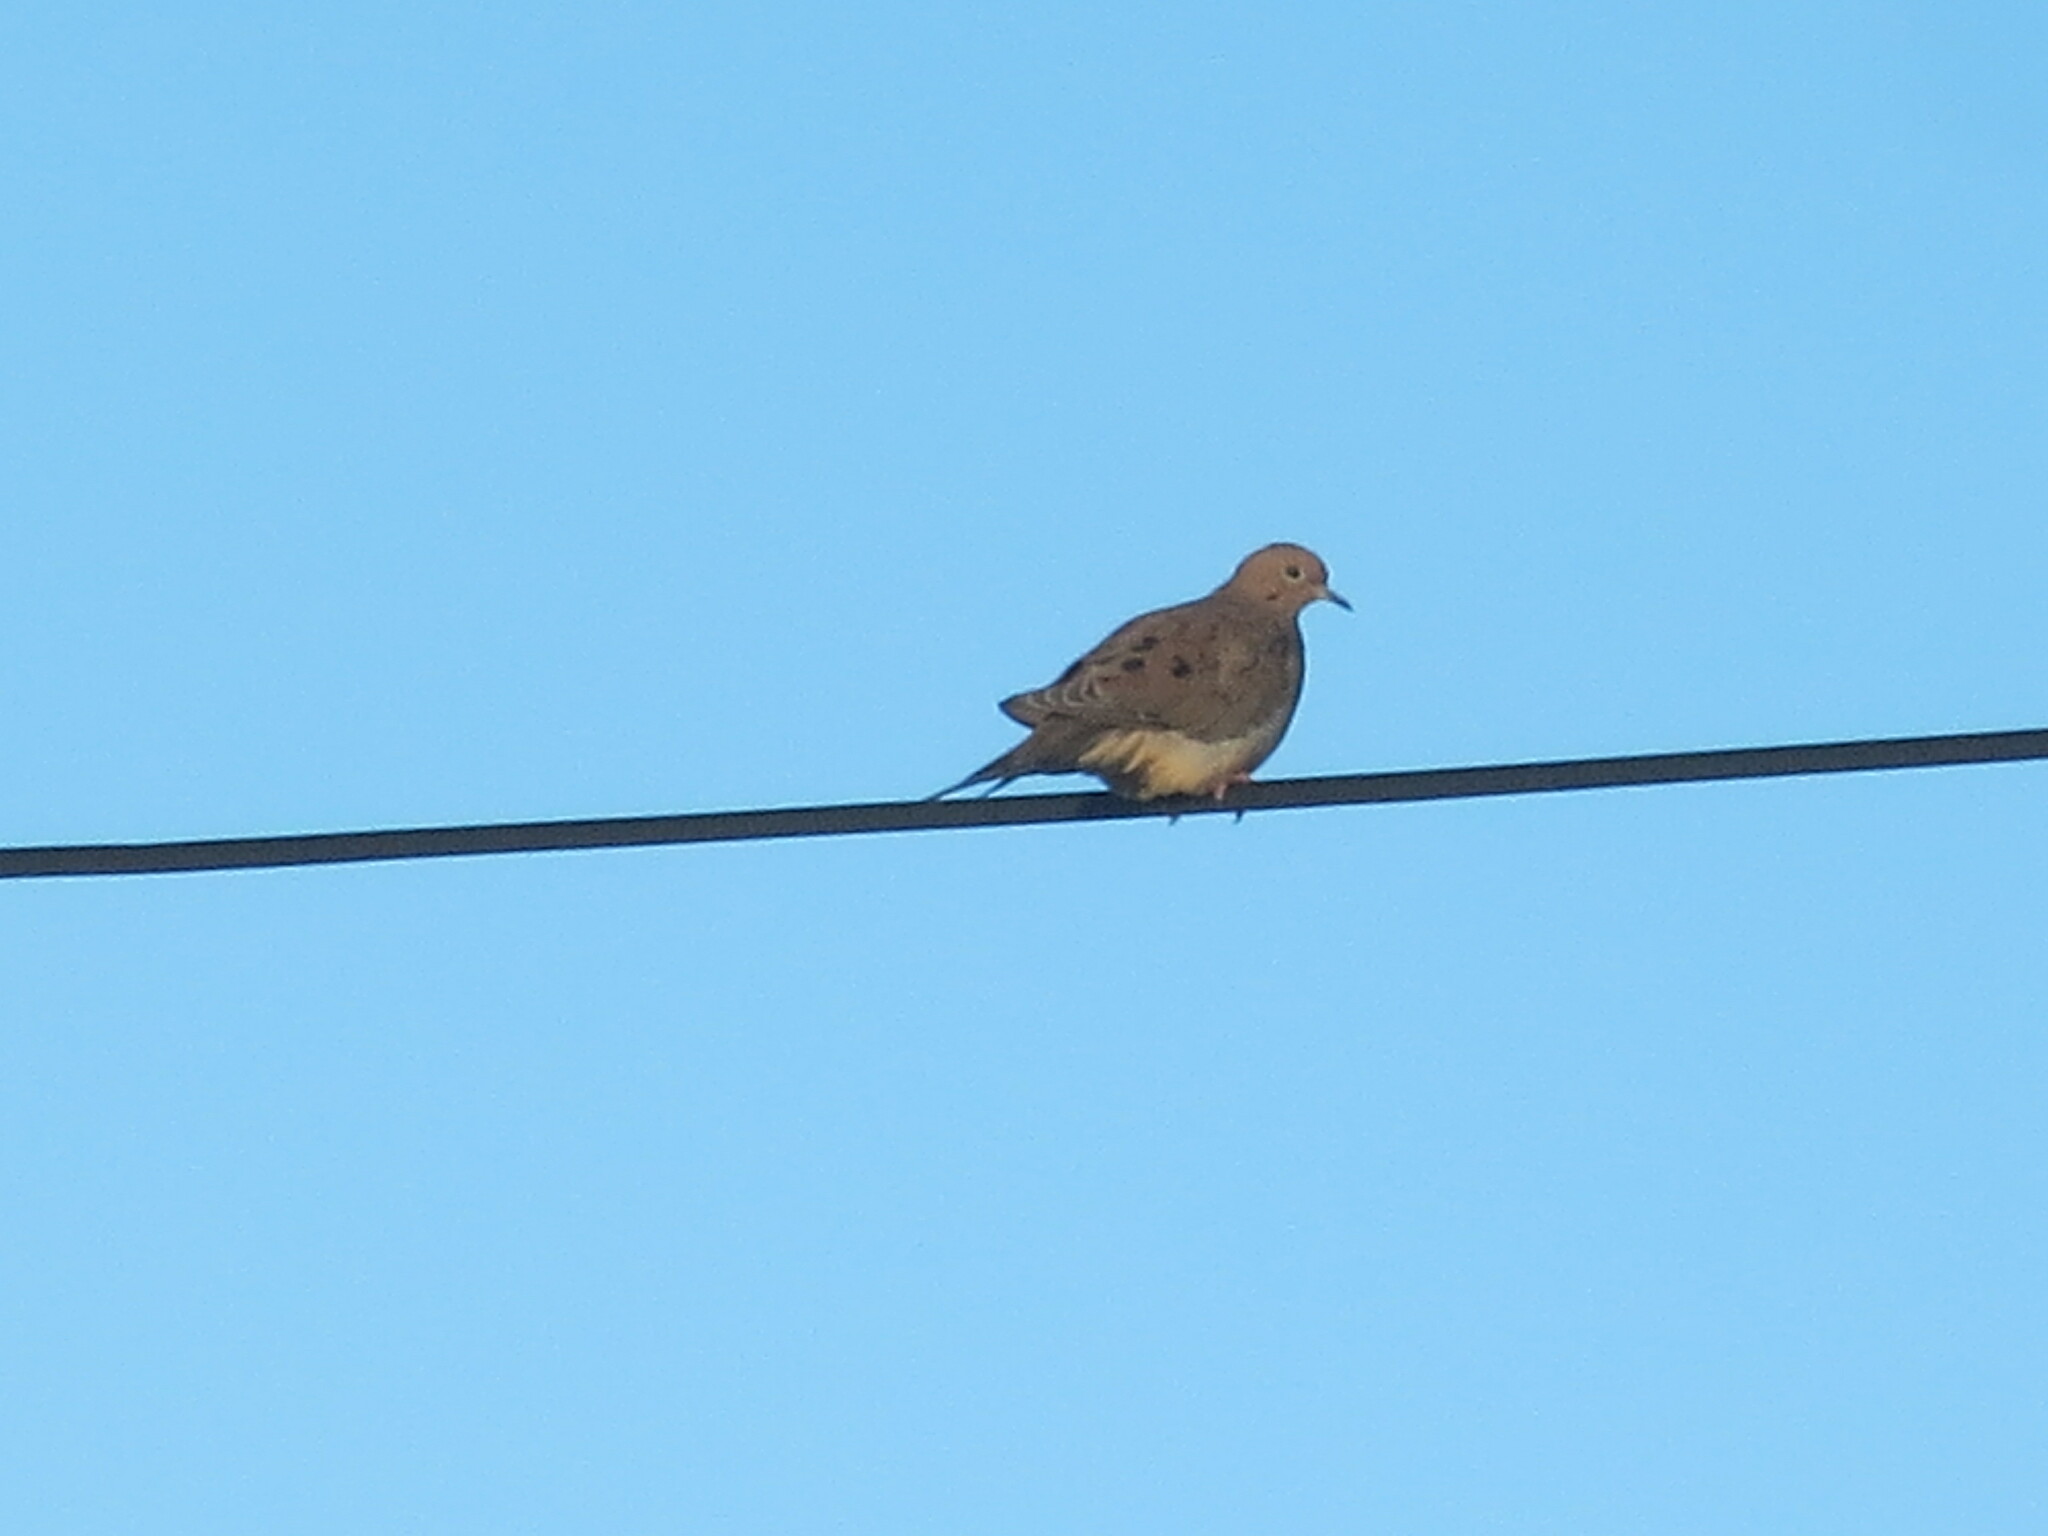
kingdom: Animalia
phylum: Chordata
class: Aves
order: Columbiformes
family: Columbidae
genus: Zenaida
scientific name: Zenaida macroura
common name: Mourning dove
